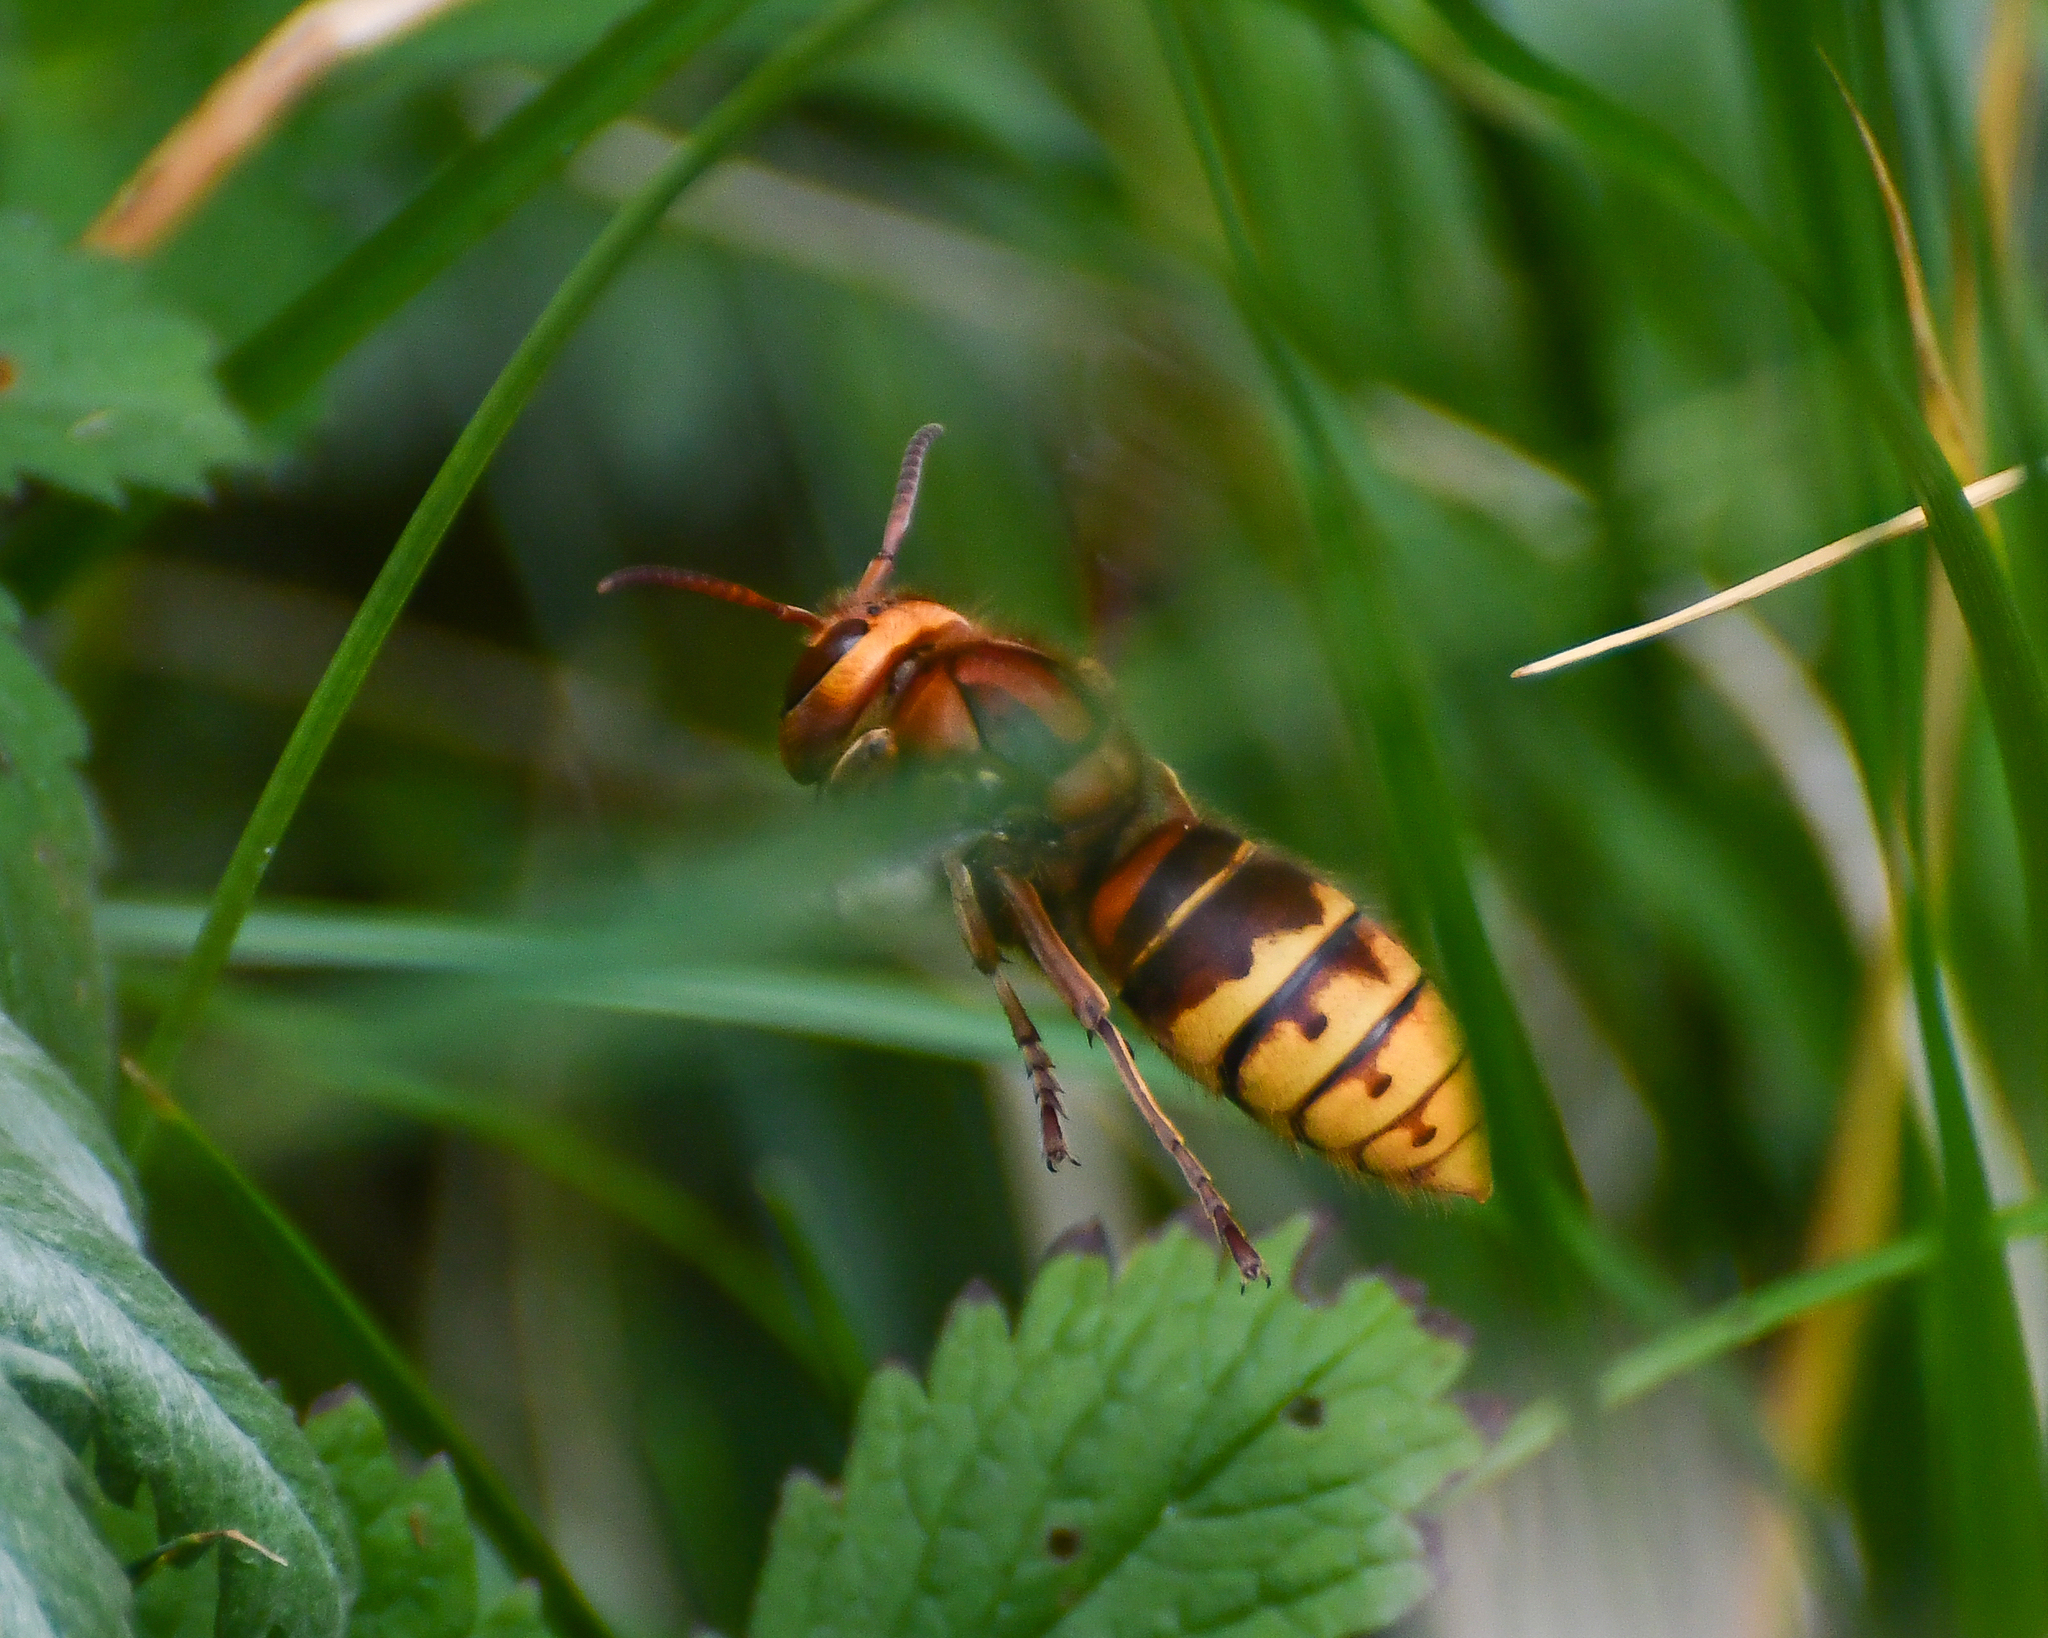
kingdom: Animalia
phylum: Arthropoda
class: Insecta
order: Hymenoptera
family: Vespidae
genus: Vespa
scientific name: Vespa crabro
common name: Hornet
